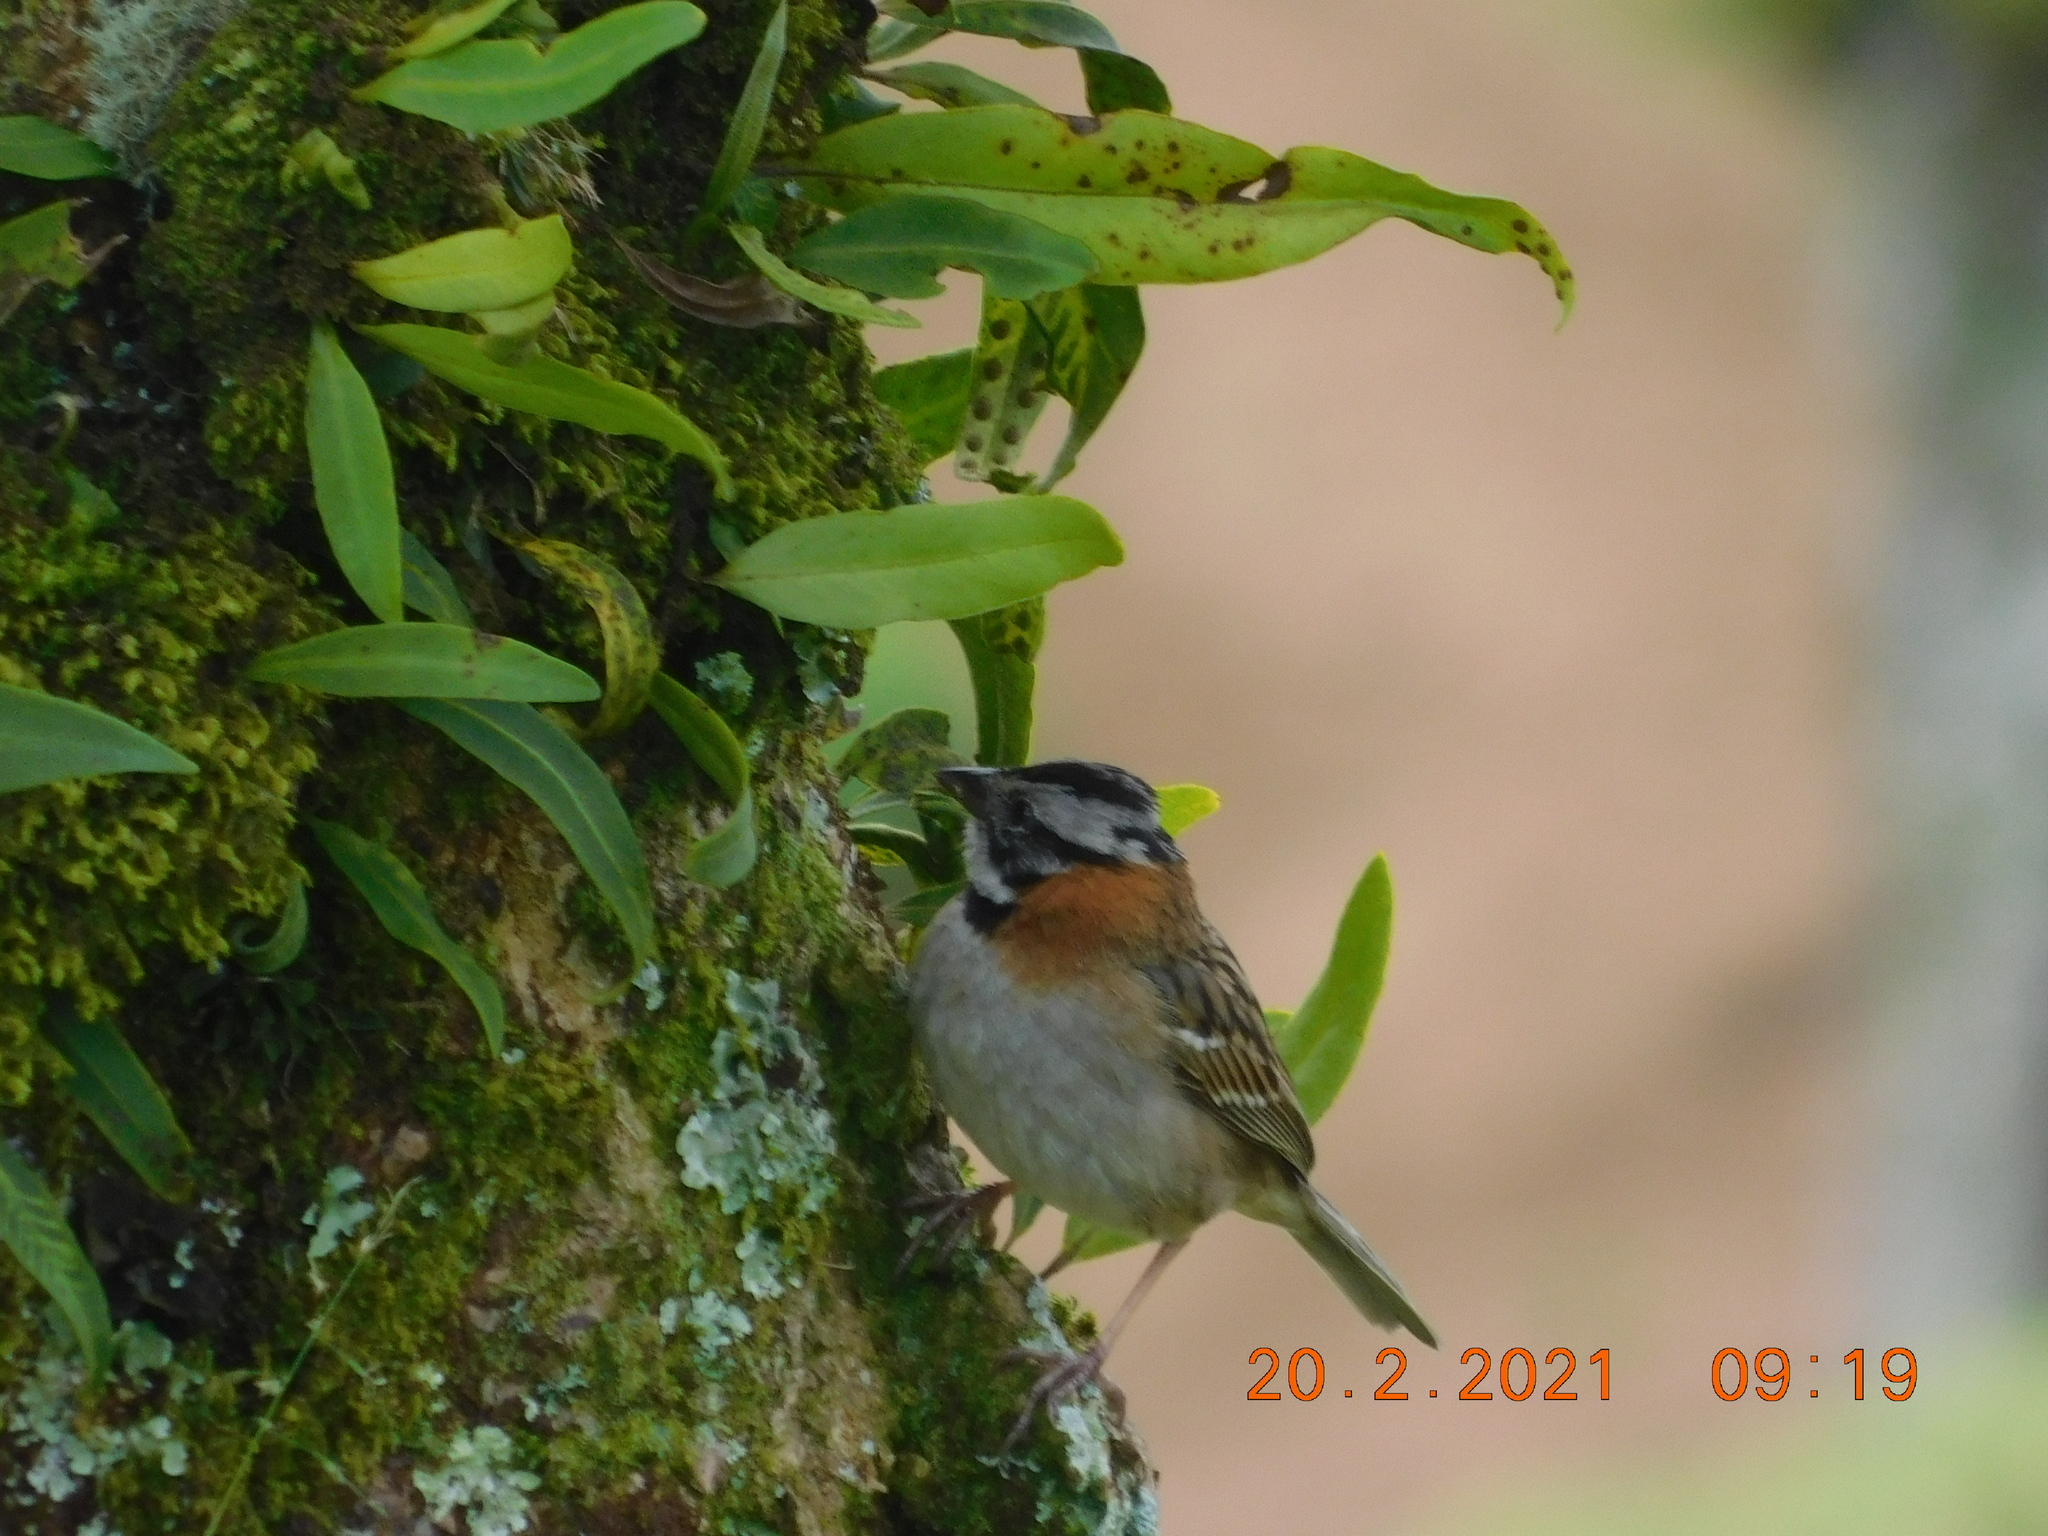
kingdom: Animalia
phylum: Chordata
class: Aves
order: Passeriformes
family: Passerellidae
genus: Zonotrichia
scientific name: Zonotrichia capensis
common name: Rufous-collared sparrow
